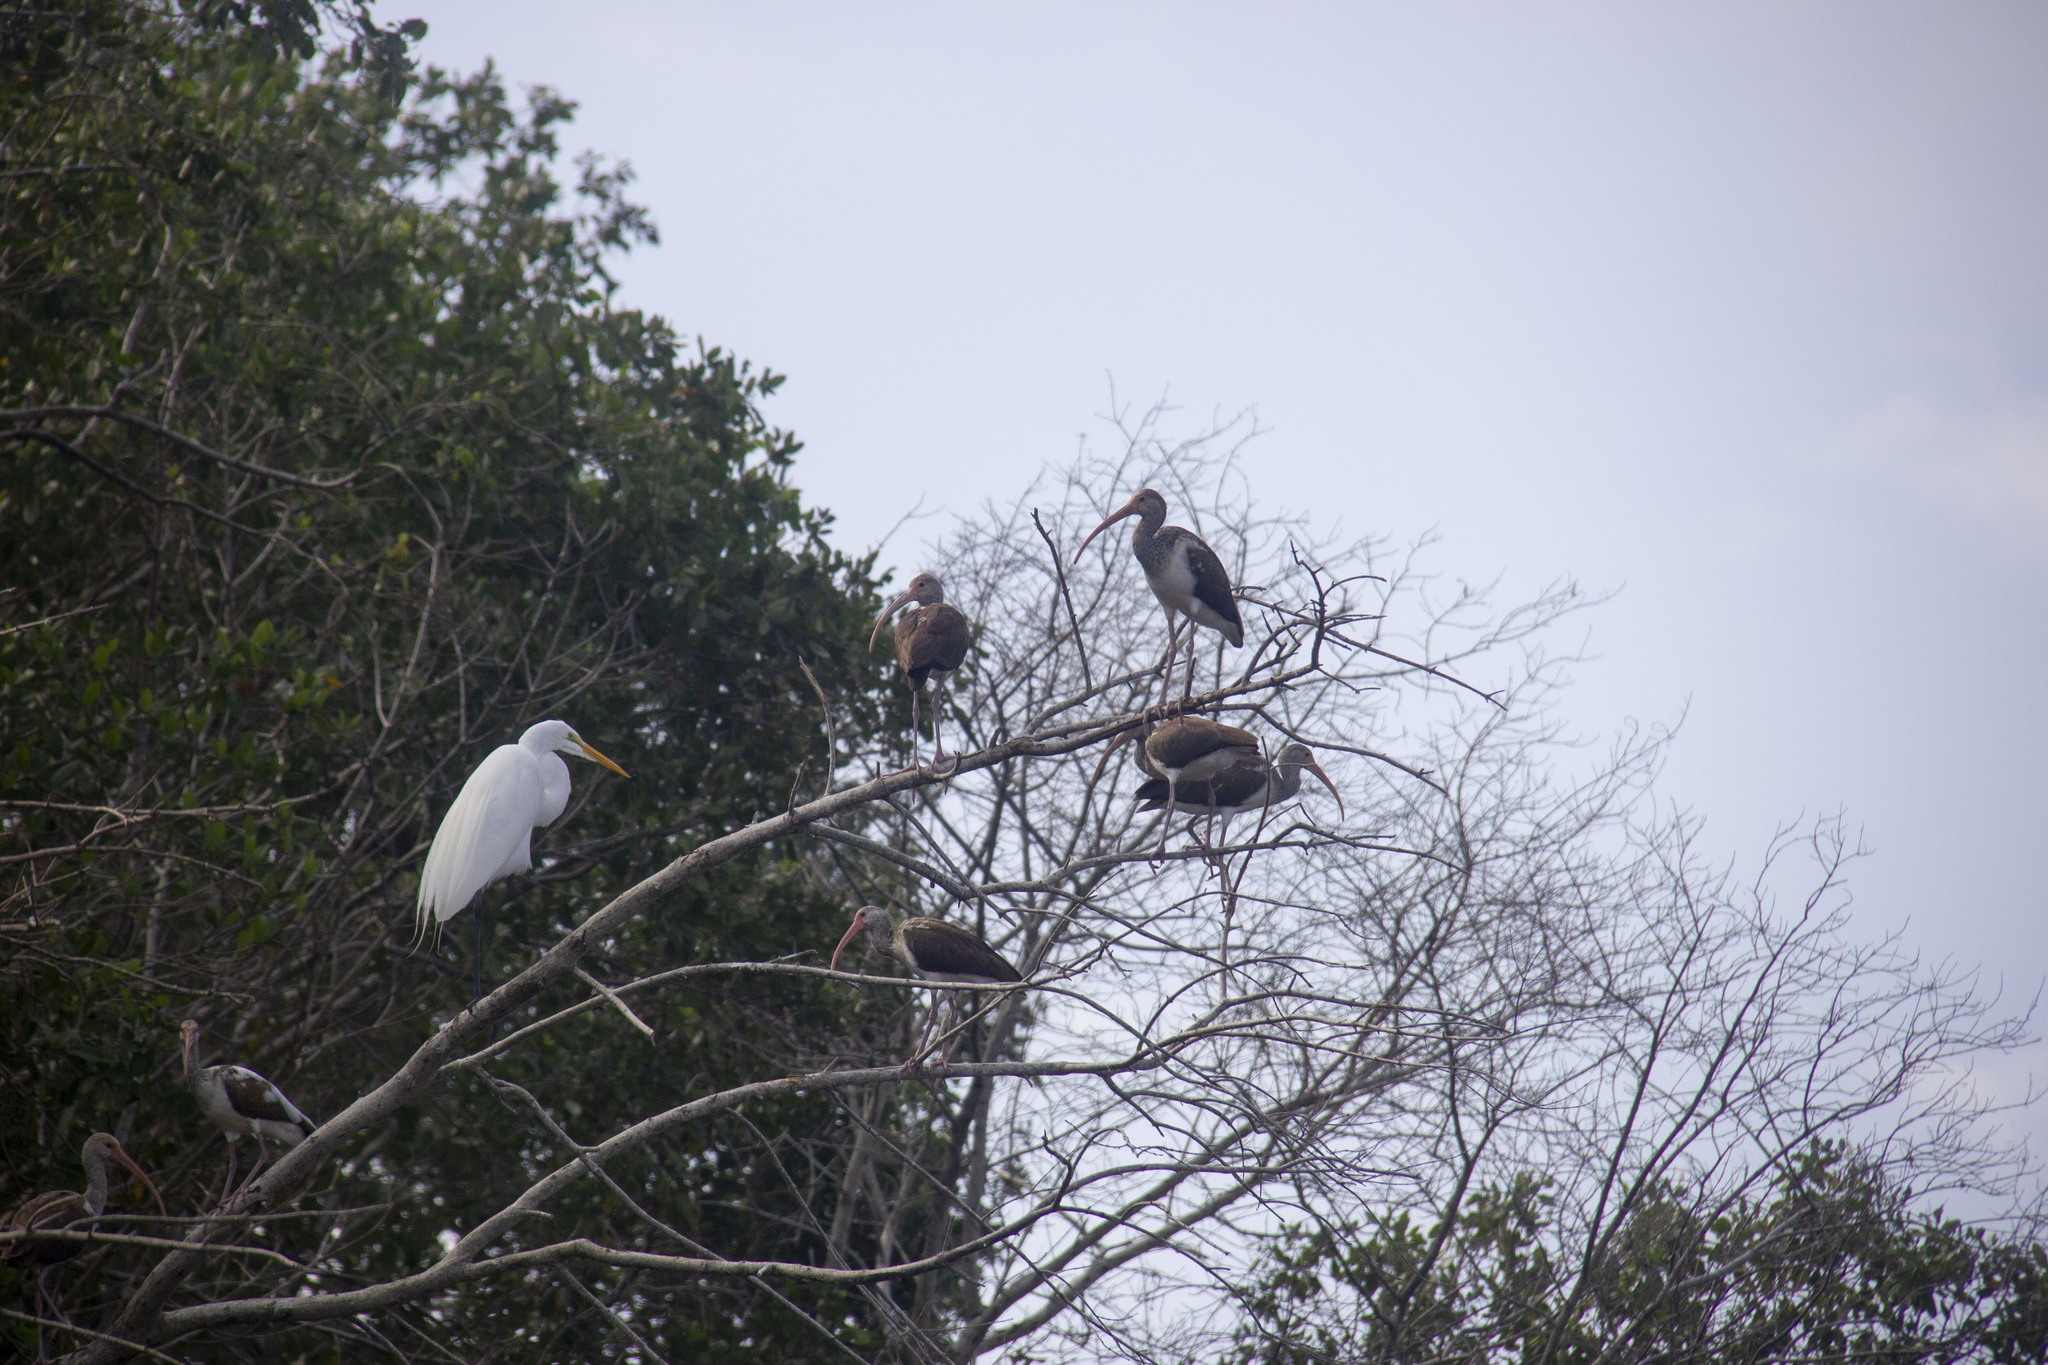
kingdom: Animalia
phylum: Chordata
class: Aves
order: Pelecaniformes
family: Ardeidae
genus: Ardea
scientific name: Ardea alba
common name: Great egret
